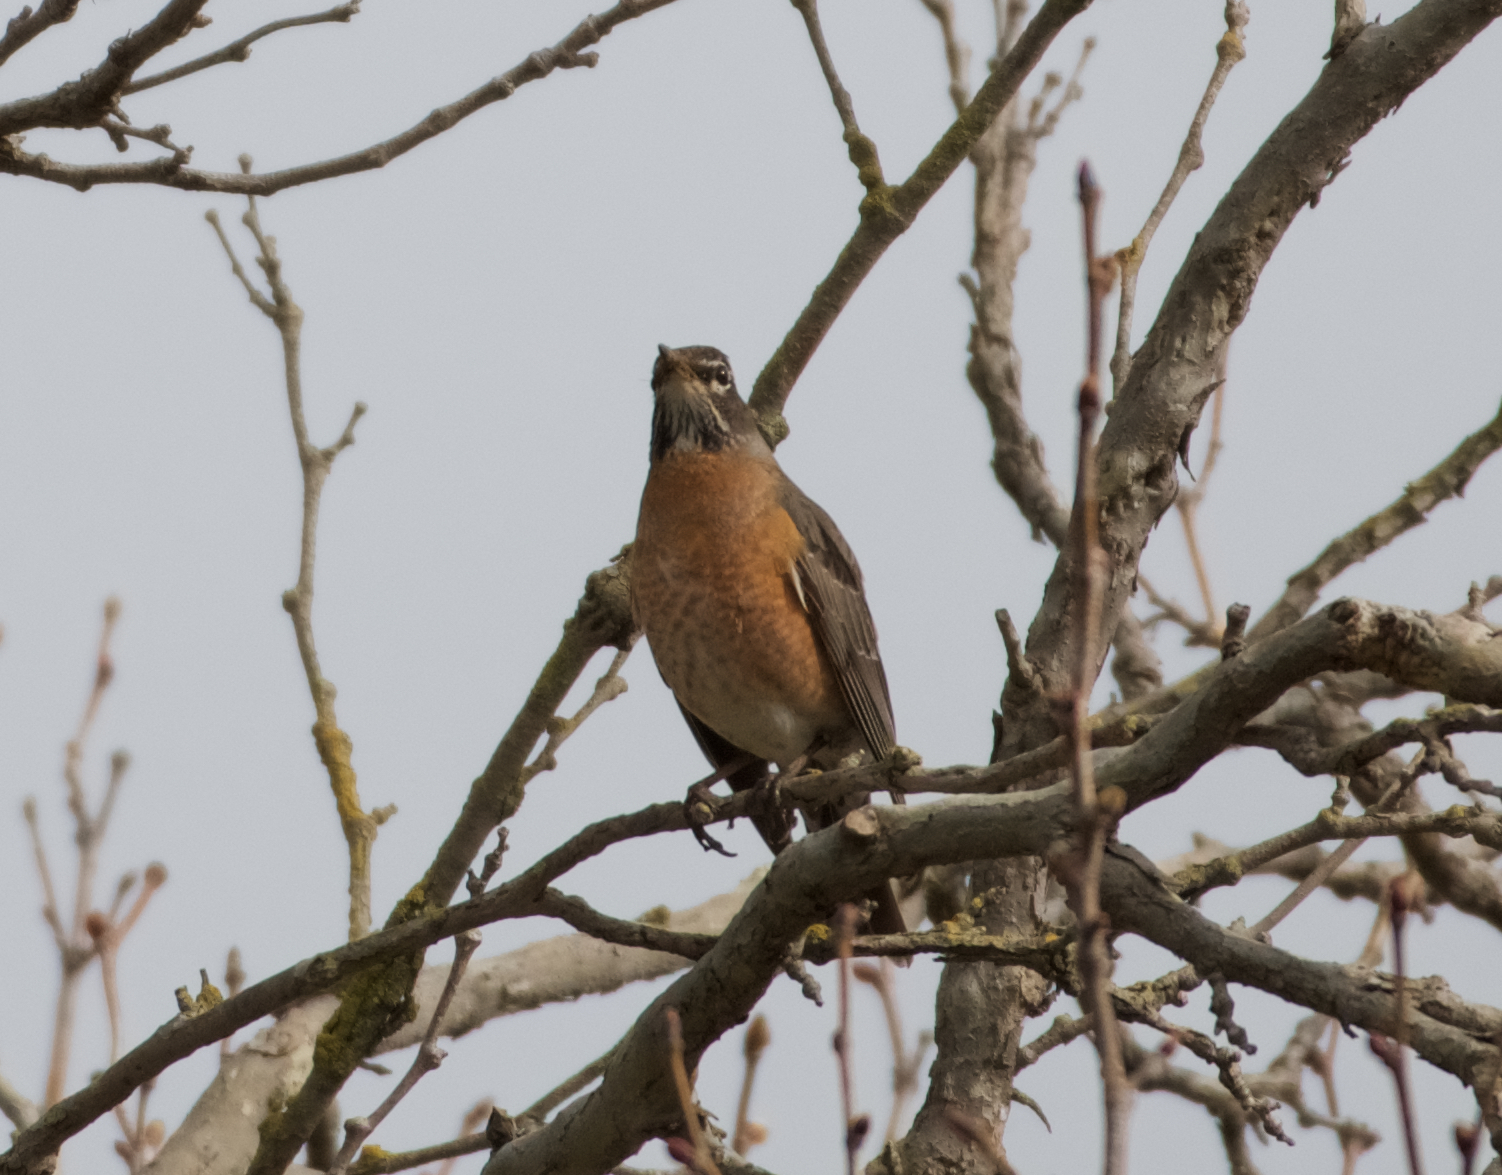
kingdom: Animalia
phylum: Chordata
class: Aves
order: Passeriformes
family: Turdidae
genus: Turdus
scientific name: Turdus migratorius
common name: American robin
